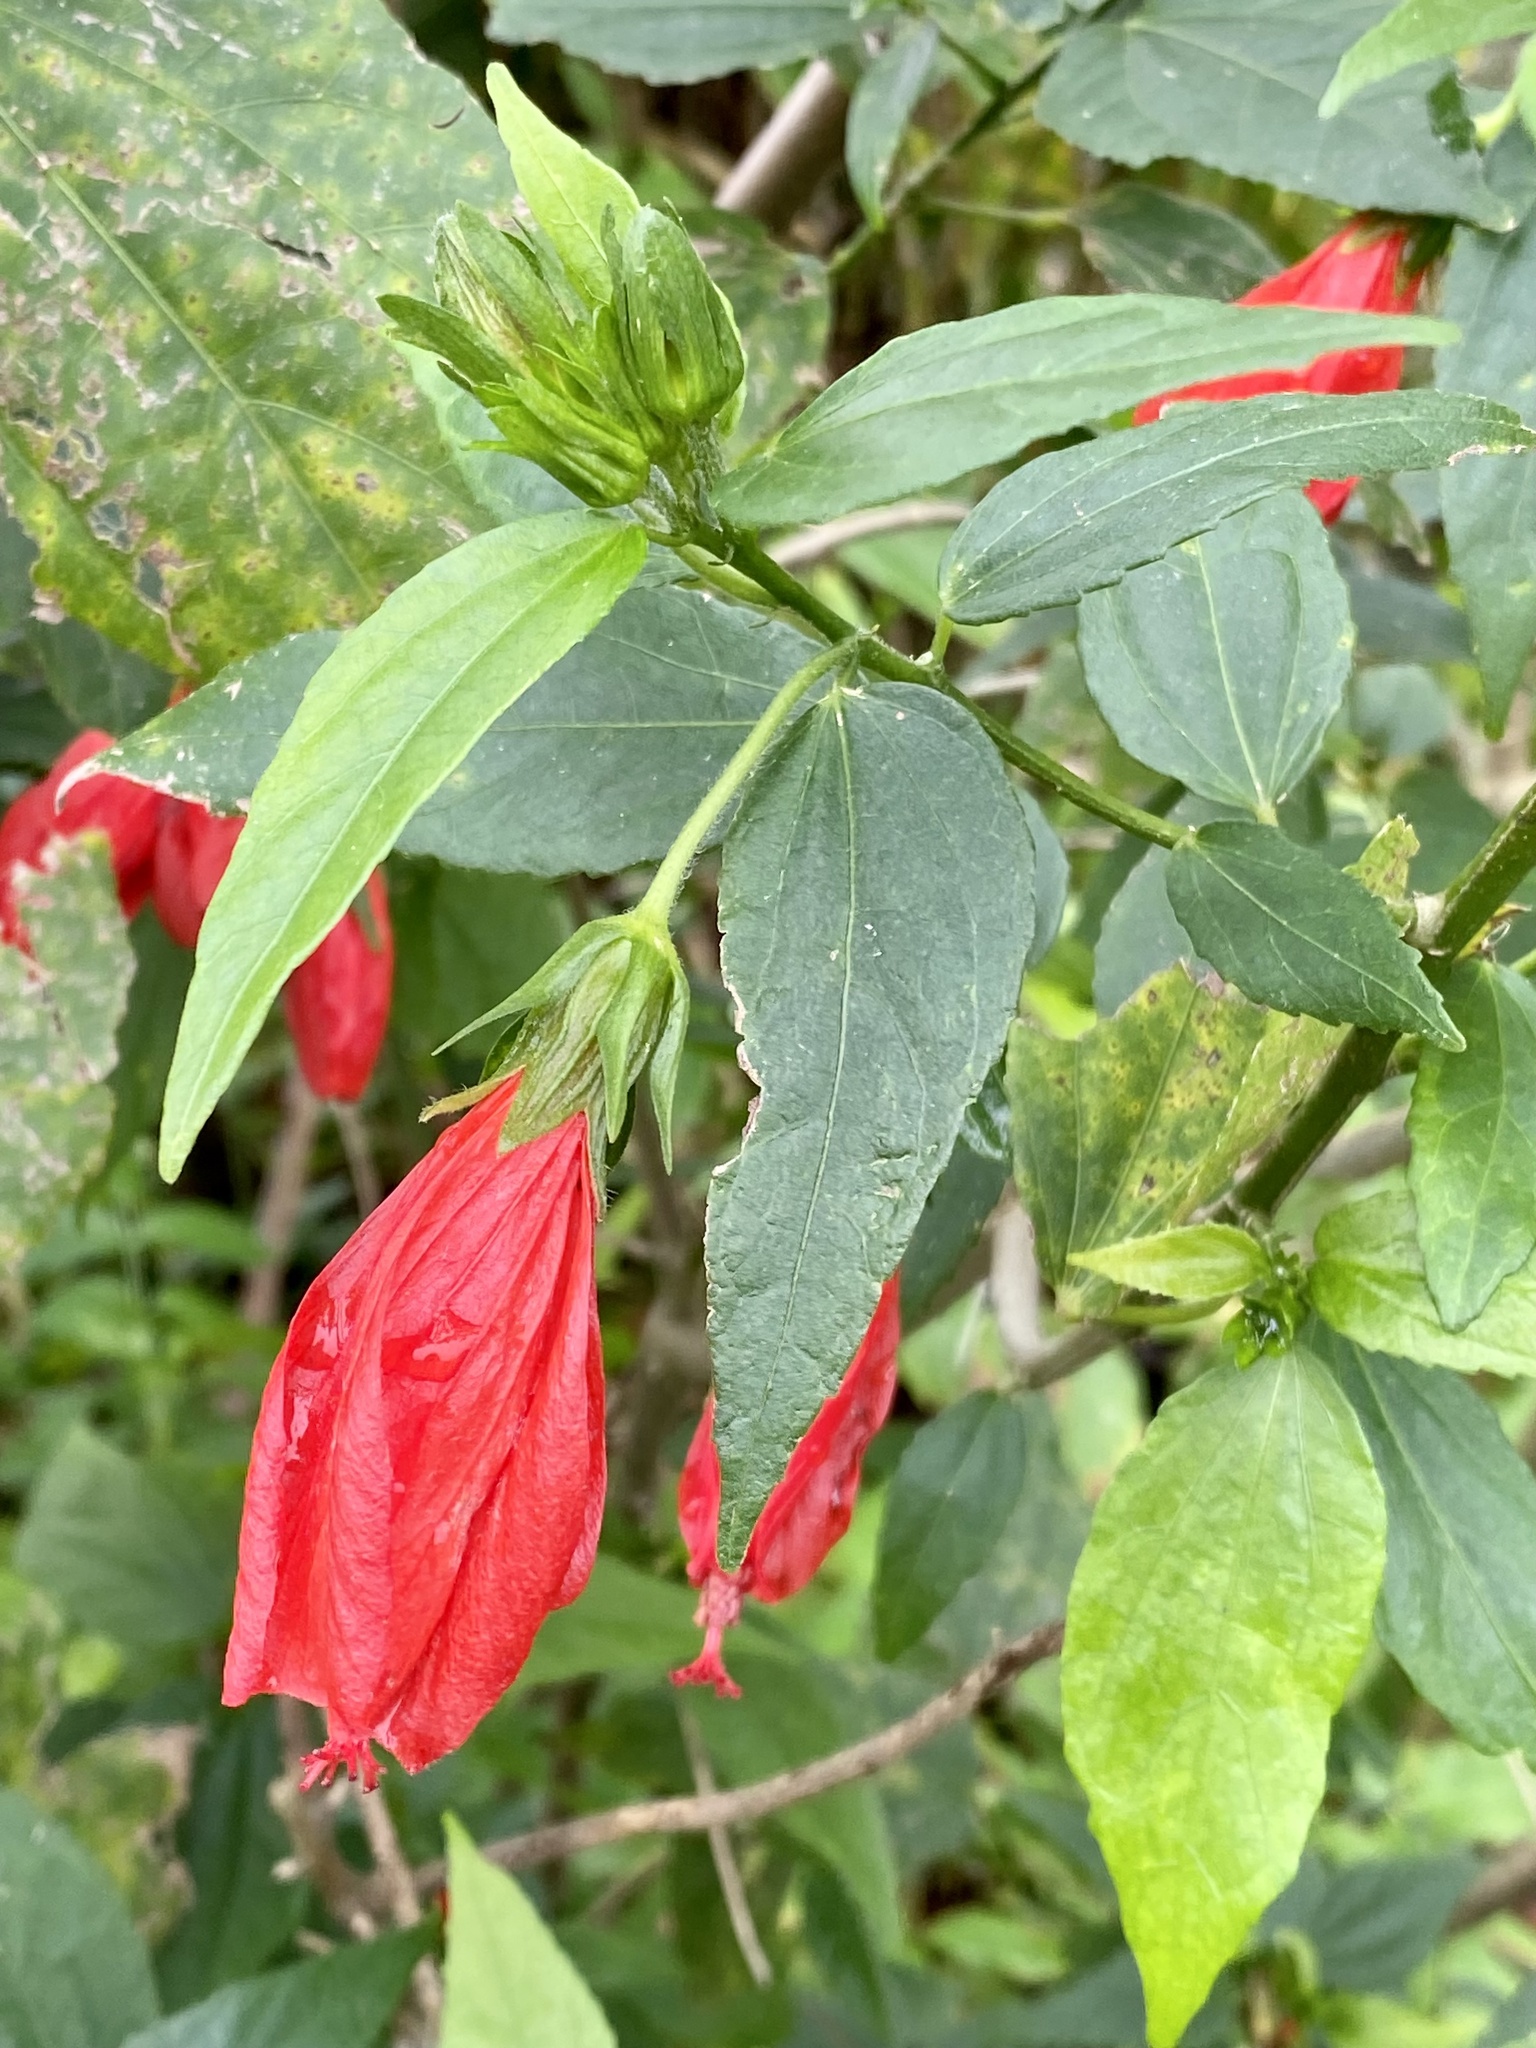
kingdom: Plantae
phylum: Tracheophyta
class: Magnoliopsida
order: Malvales
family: Malvaceae
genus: Malvaviscus
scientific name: Malvaviscus penduliflorus
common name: Mazapan
